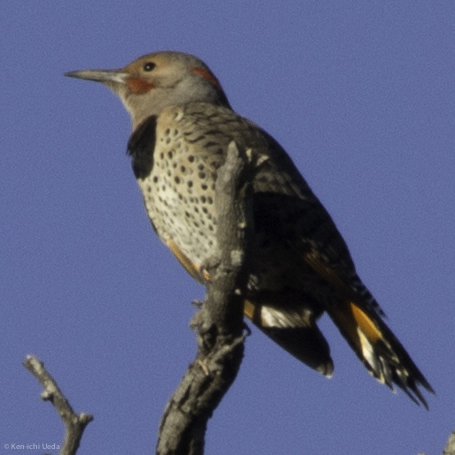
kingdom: Animalia
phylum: Chordata
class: Aves
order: Piciformes
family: Picidae
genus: Colaptes
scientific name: Colaptes auratus
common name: Northern flicker
